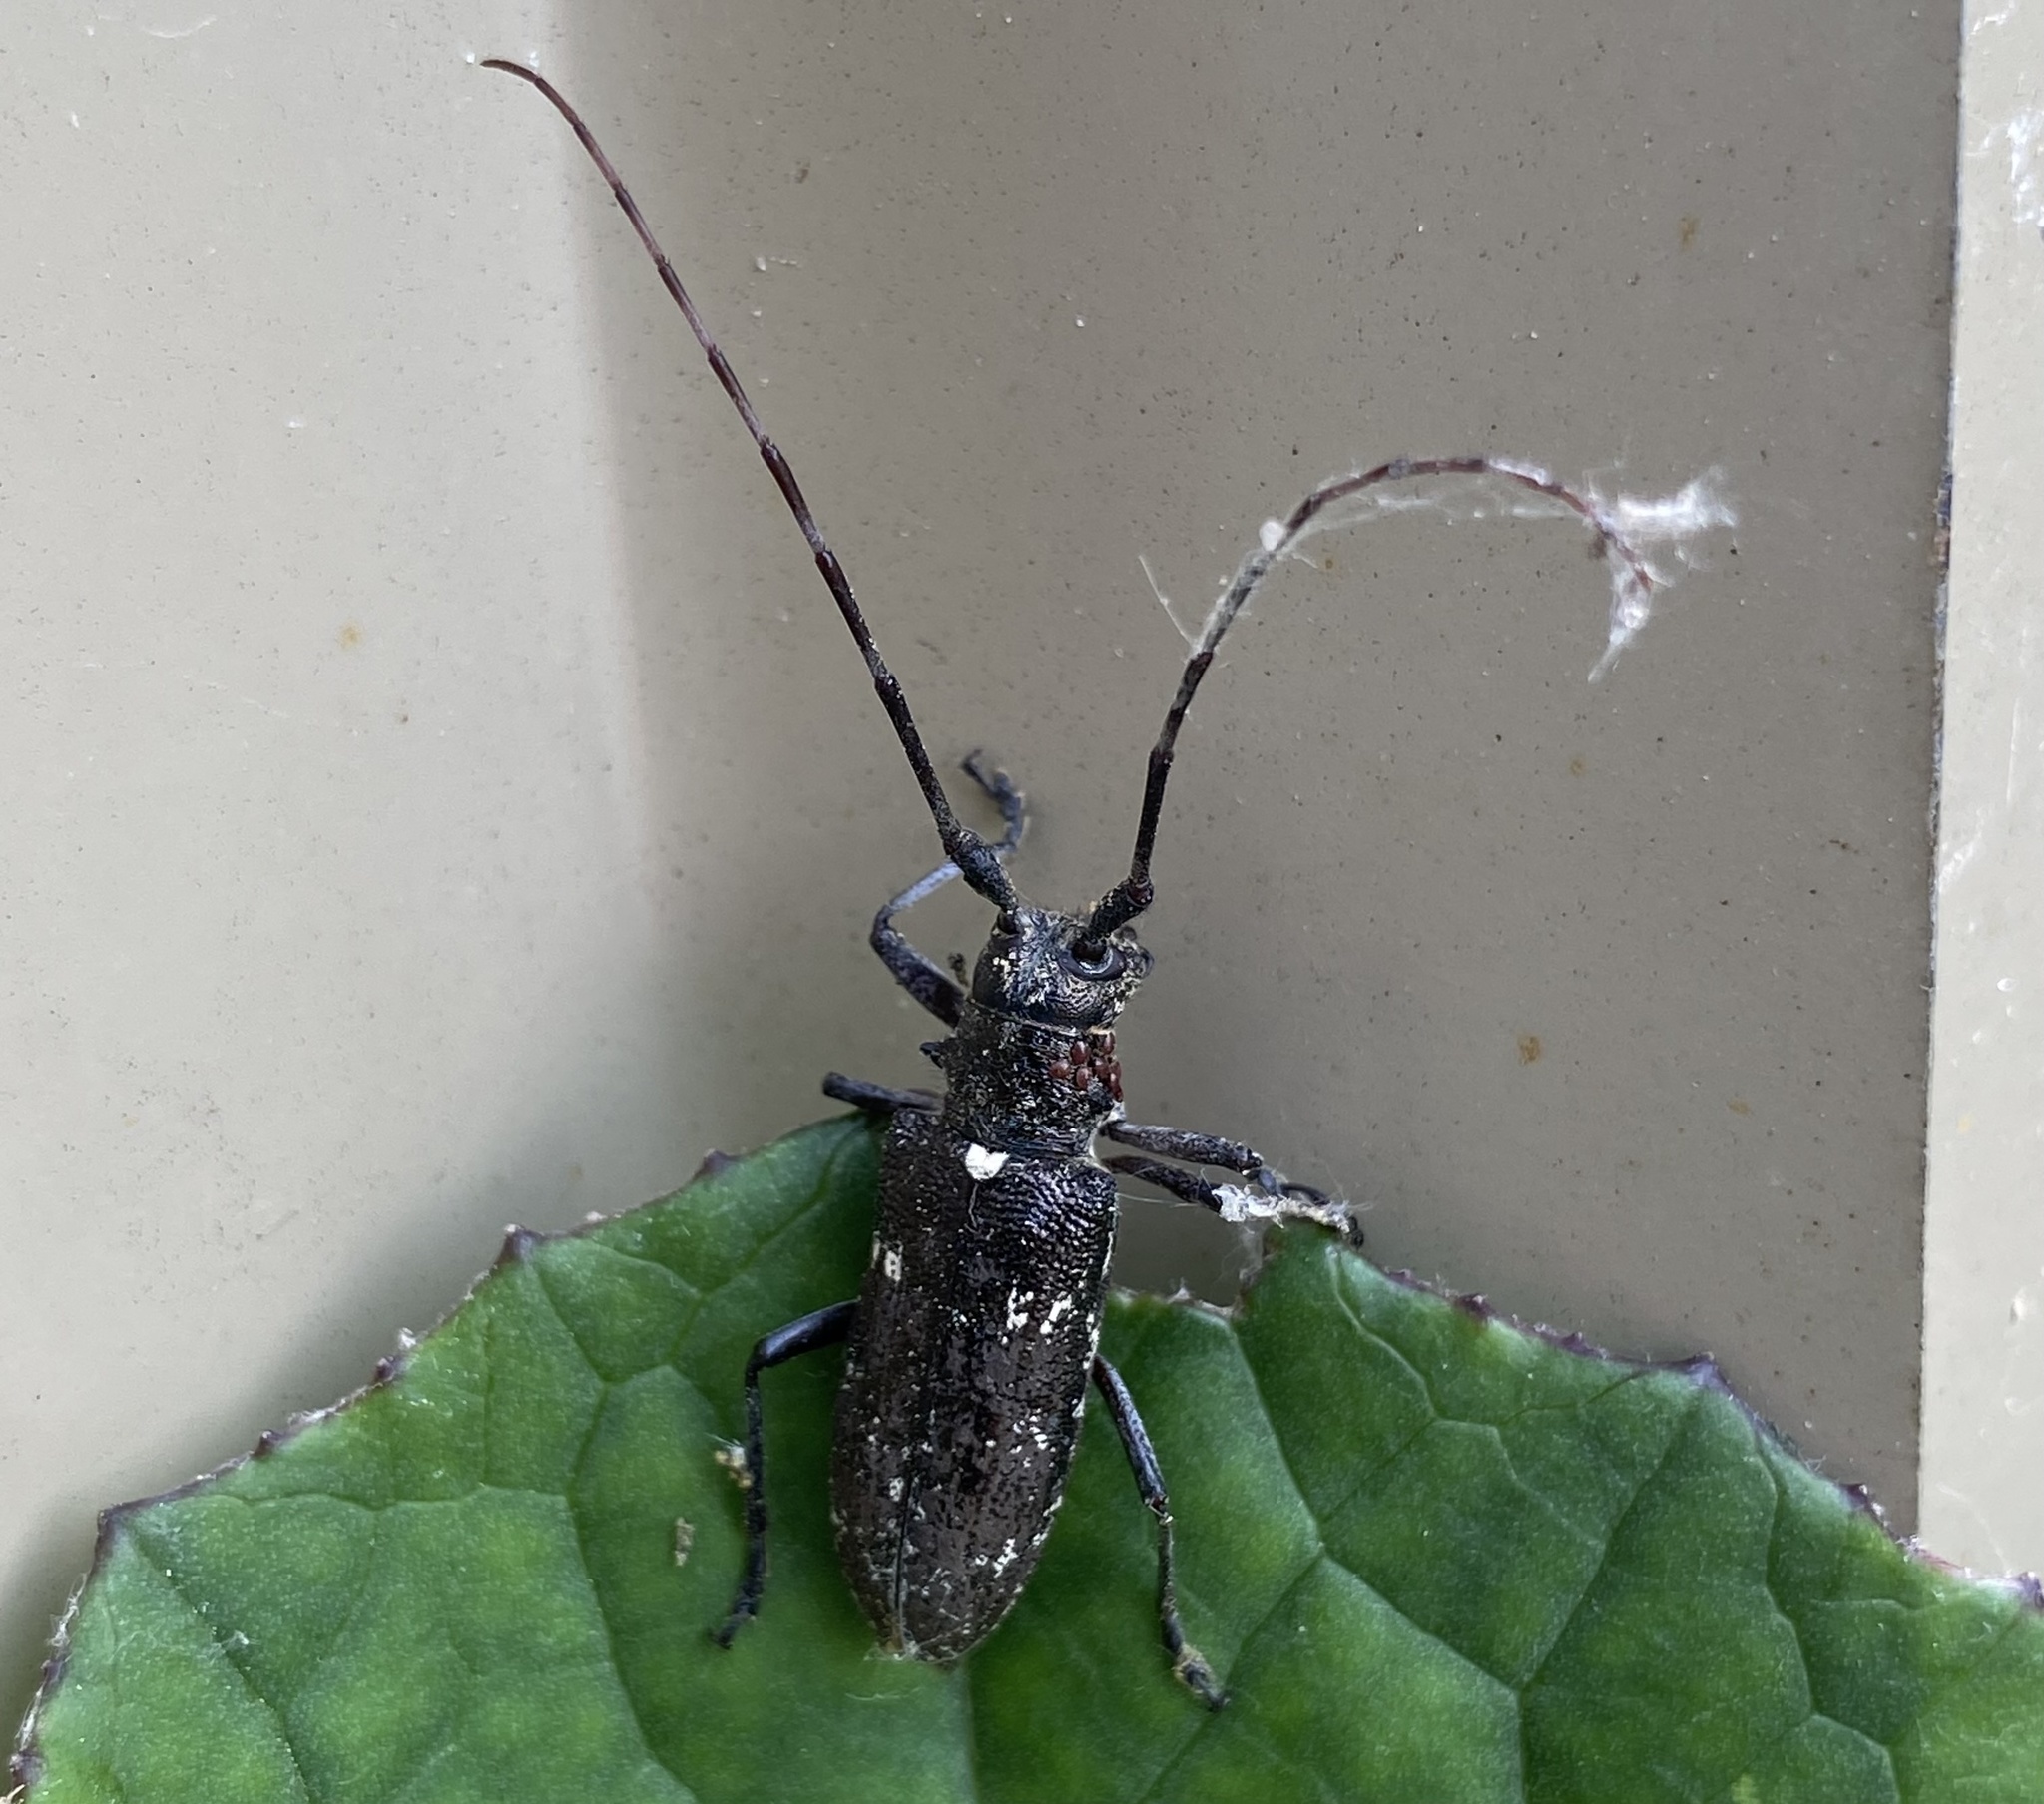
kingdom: Animalia
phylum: Arthropoda
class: Insecta
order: Coleoptera
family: Cerambycidae
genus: Monochamus
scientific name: Monochamus scutellatus
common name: White-spotted sawyer beetle
